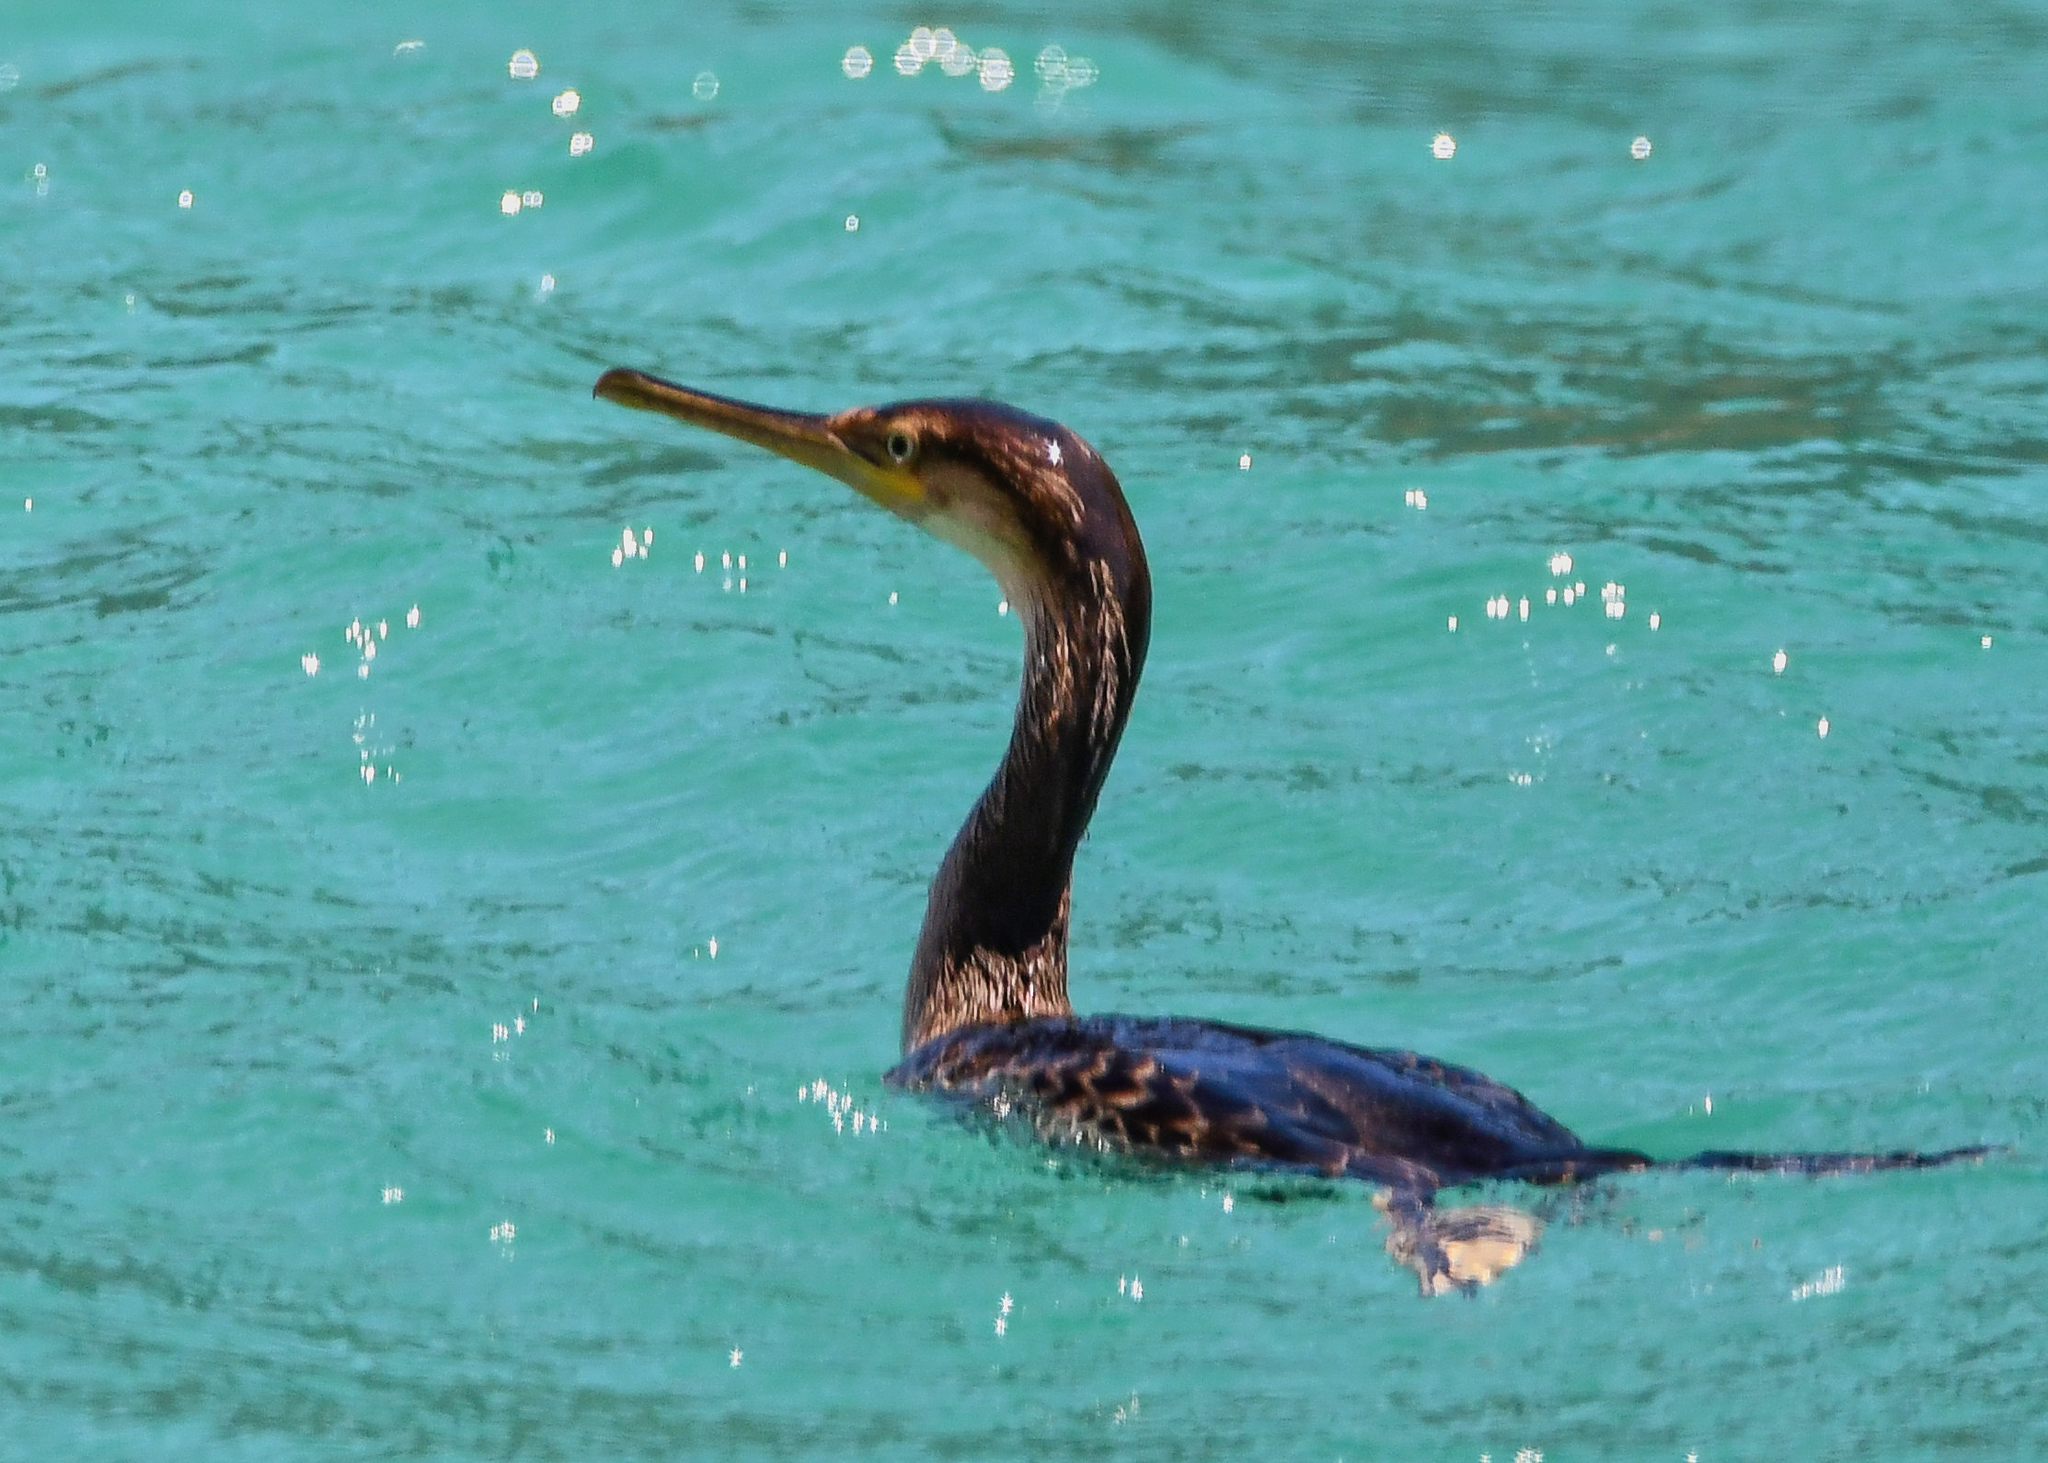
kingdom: Animalia
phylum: Chordata
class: Aves
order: Suliformes
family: Phalacrocoracidae
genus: Phalacrocorax
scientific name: Phalacrocorax aristotelis
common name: European shag
